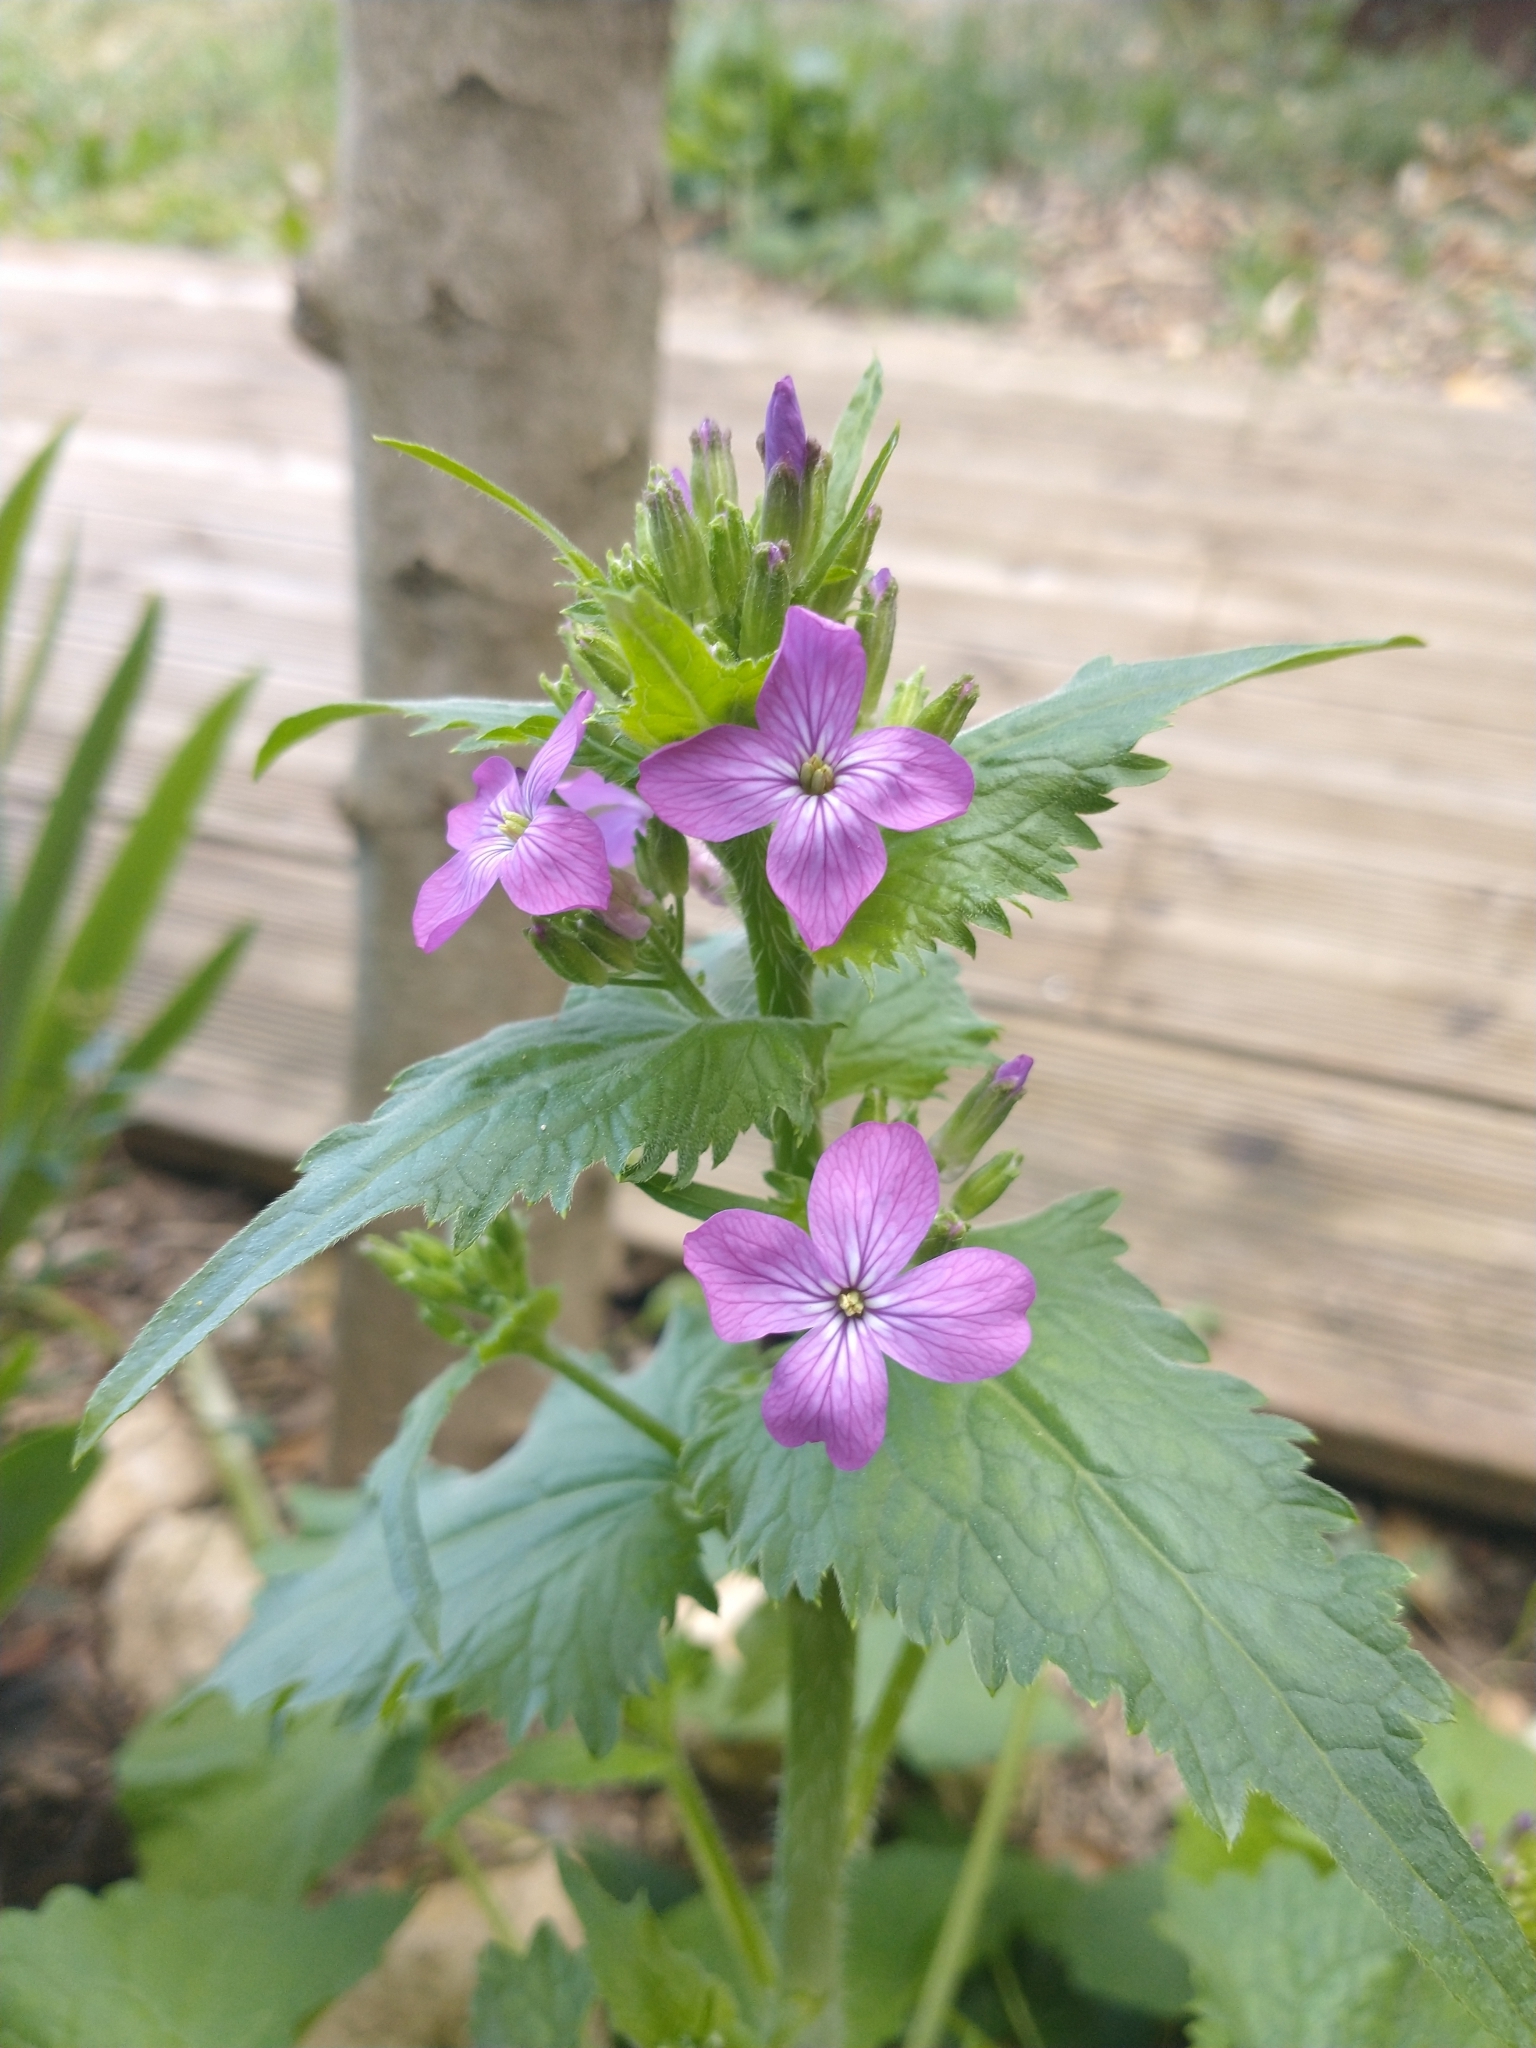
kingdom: Plantae
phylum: Tracheophyta
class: Magnoliopsida
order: Brassicales
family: Brassicaceae
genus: Lunaria
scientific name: Lunaria annua
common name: Honesty
